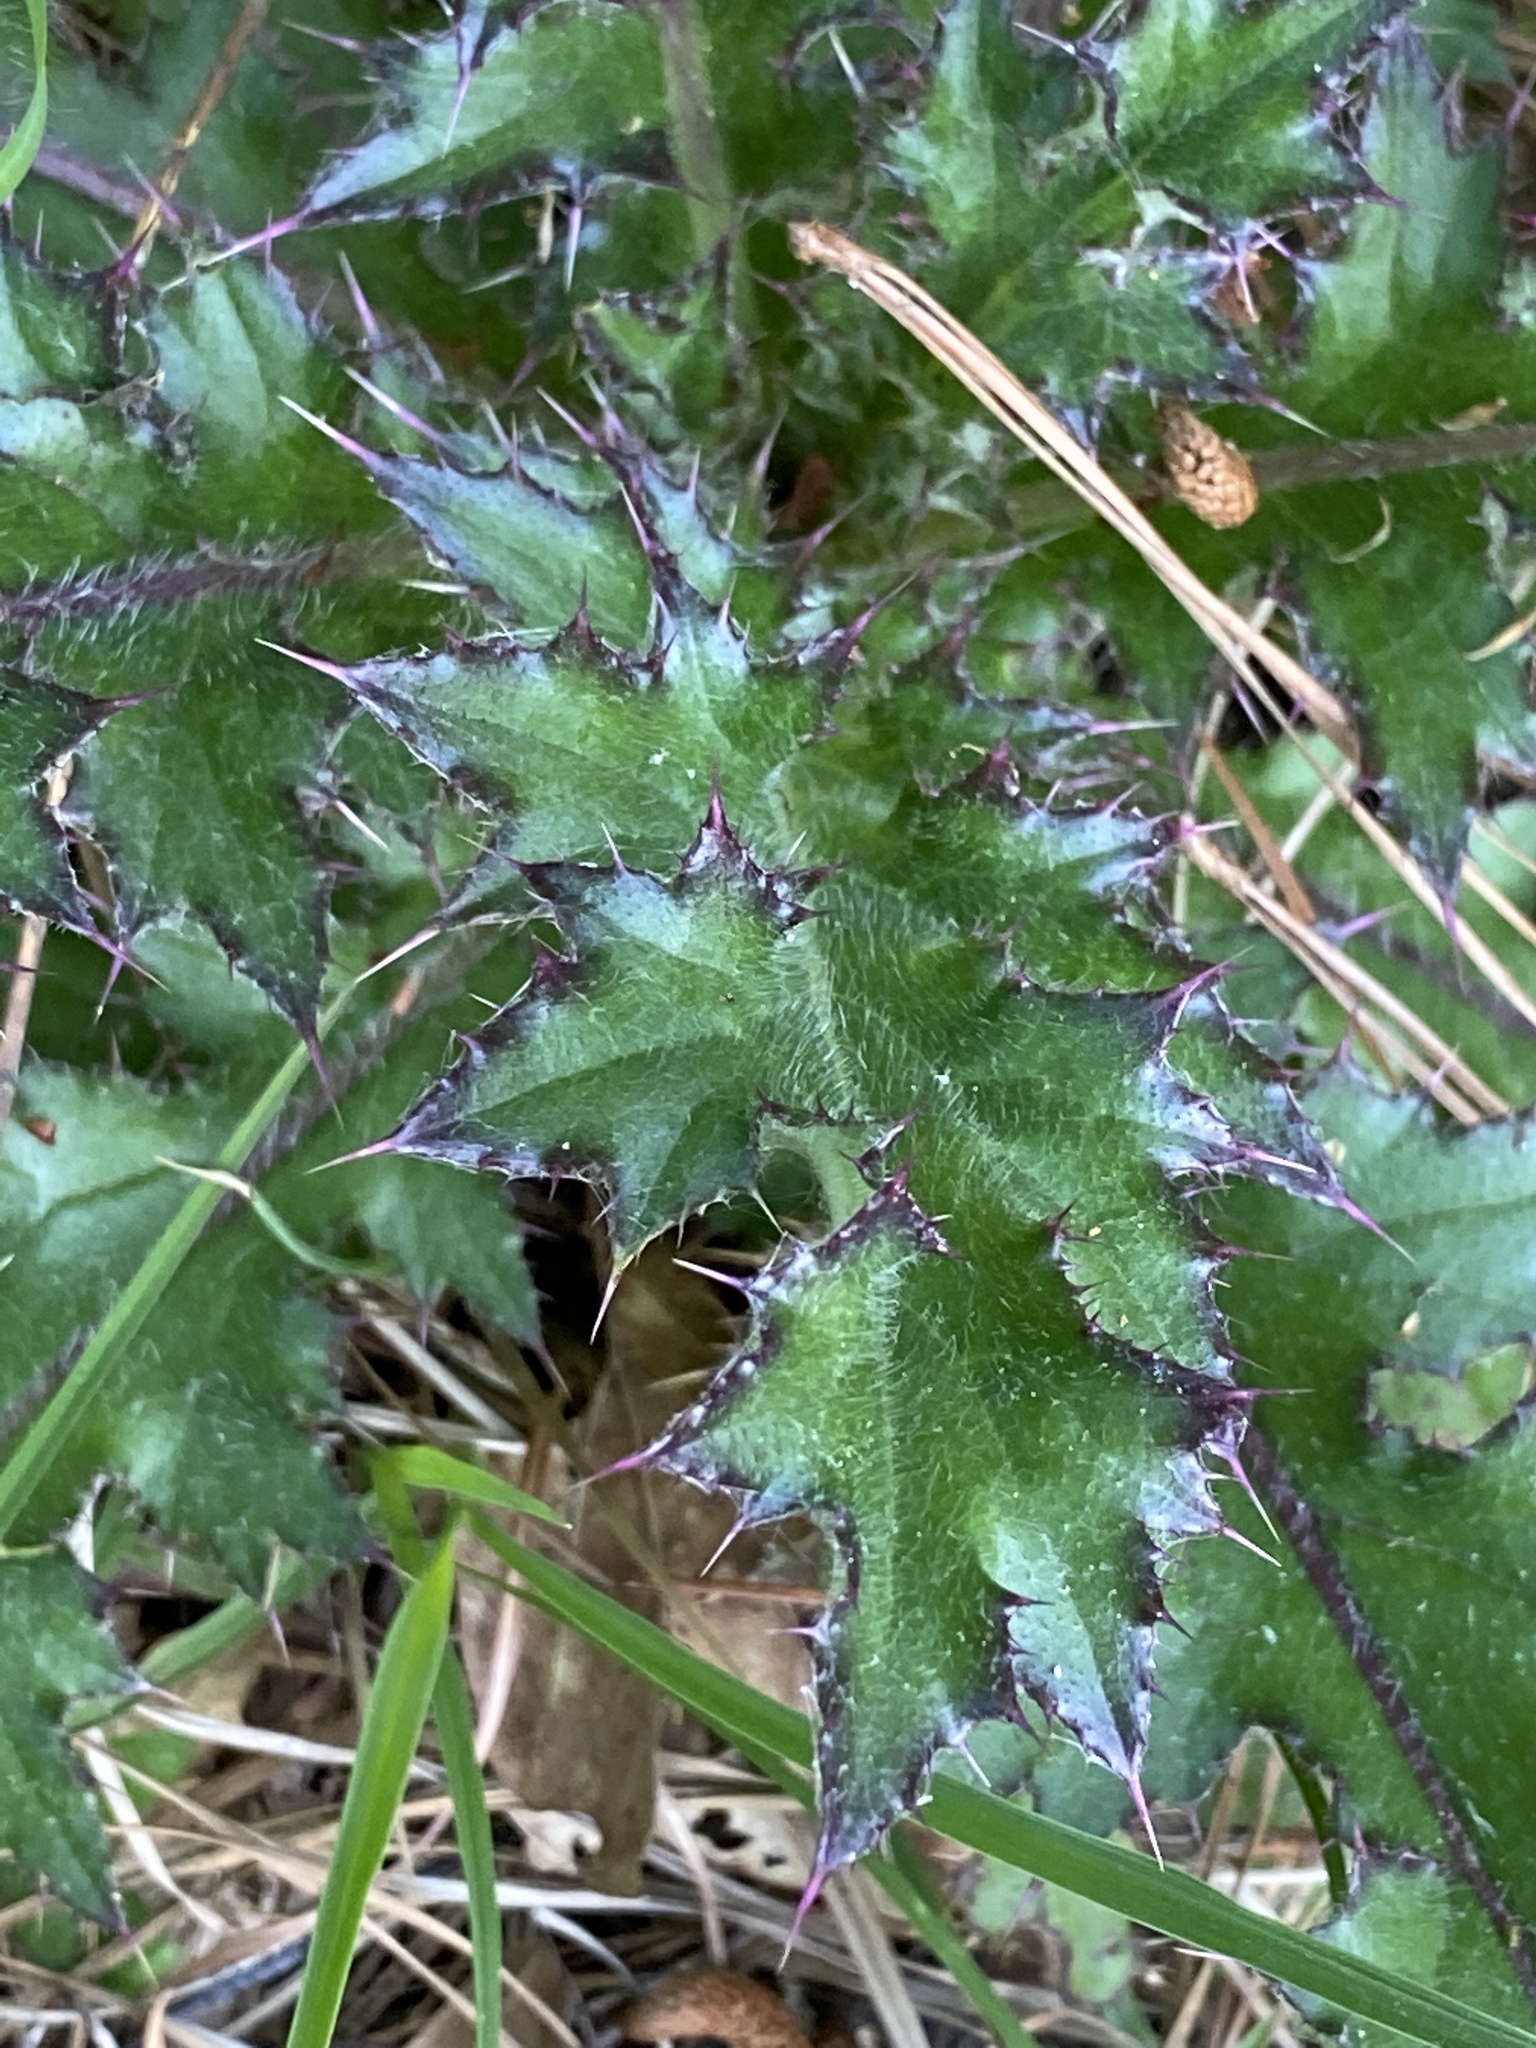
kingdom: Plantae
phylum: Tracheophyta
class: Magnoliopsida
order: Asterales
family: Asteraceae
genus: Cirsium
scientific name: Cirsium horridulum
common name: Bristly thistle
